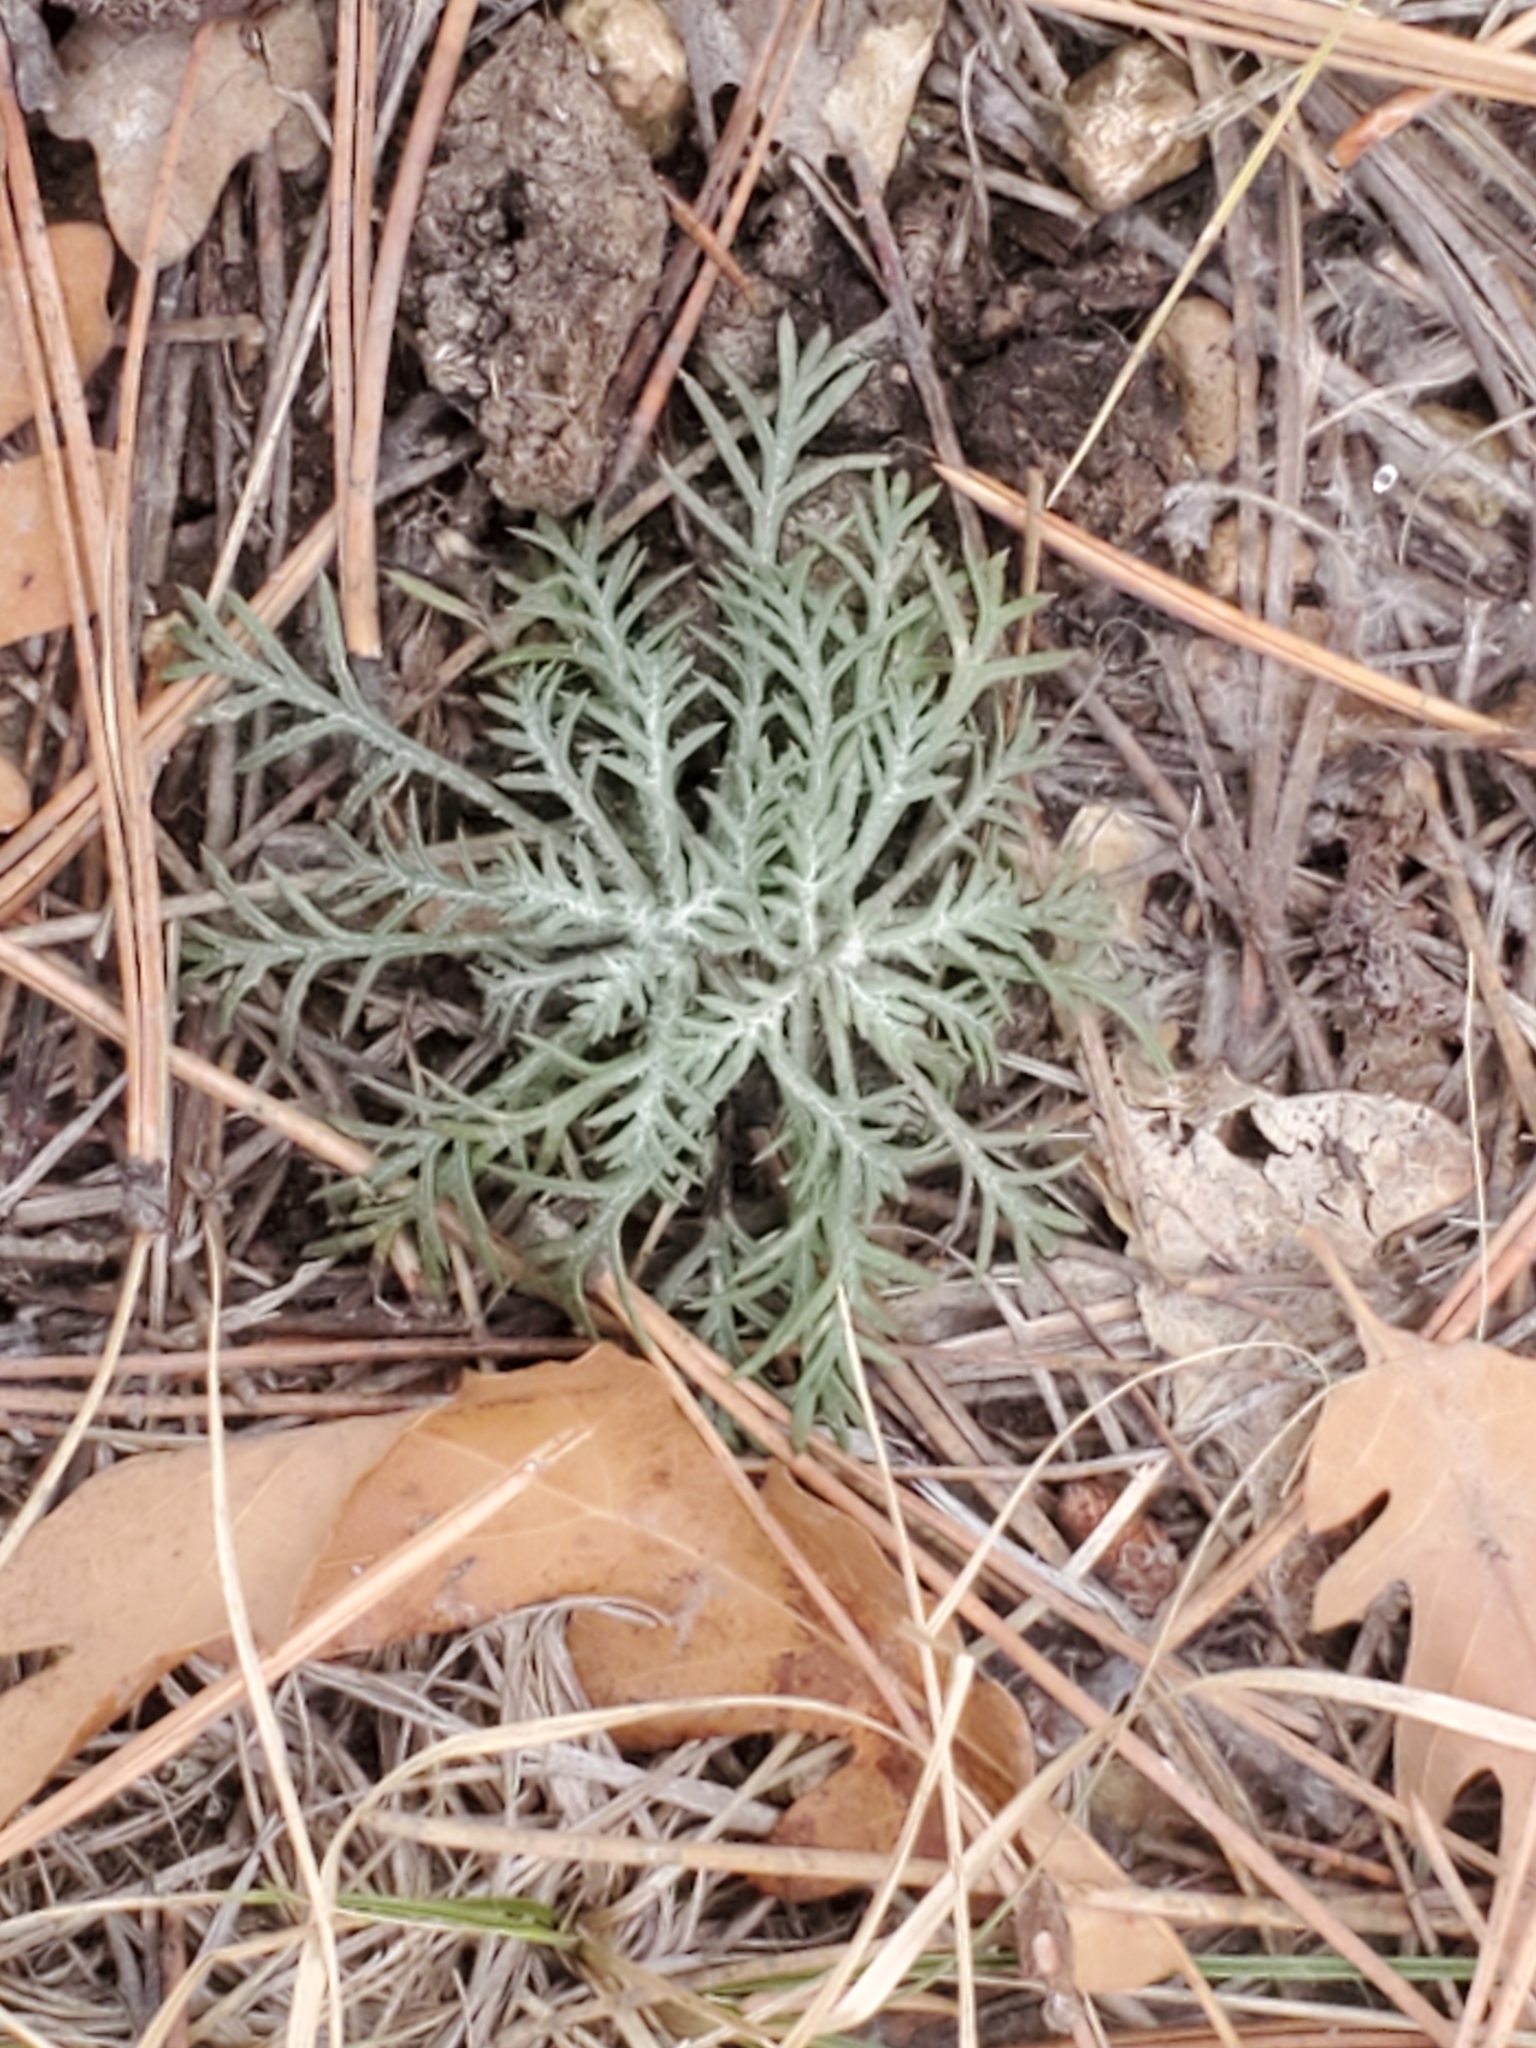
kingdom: Plantae
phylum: Tracheophyta
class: Magnoliopsida
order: Ericales
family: Polemoniaceae
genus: Ipomopsis
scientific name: Ipomopsis aggregata
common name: Scarlet gilia
